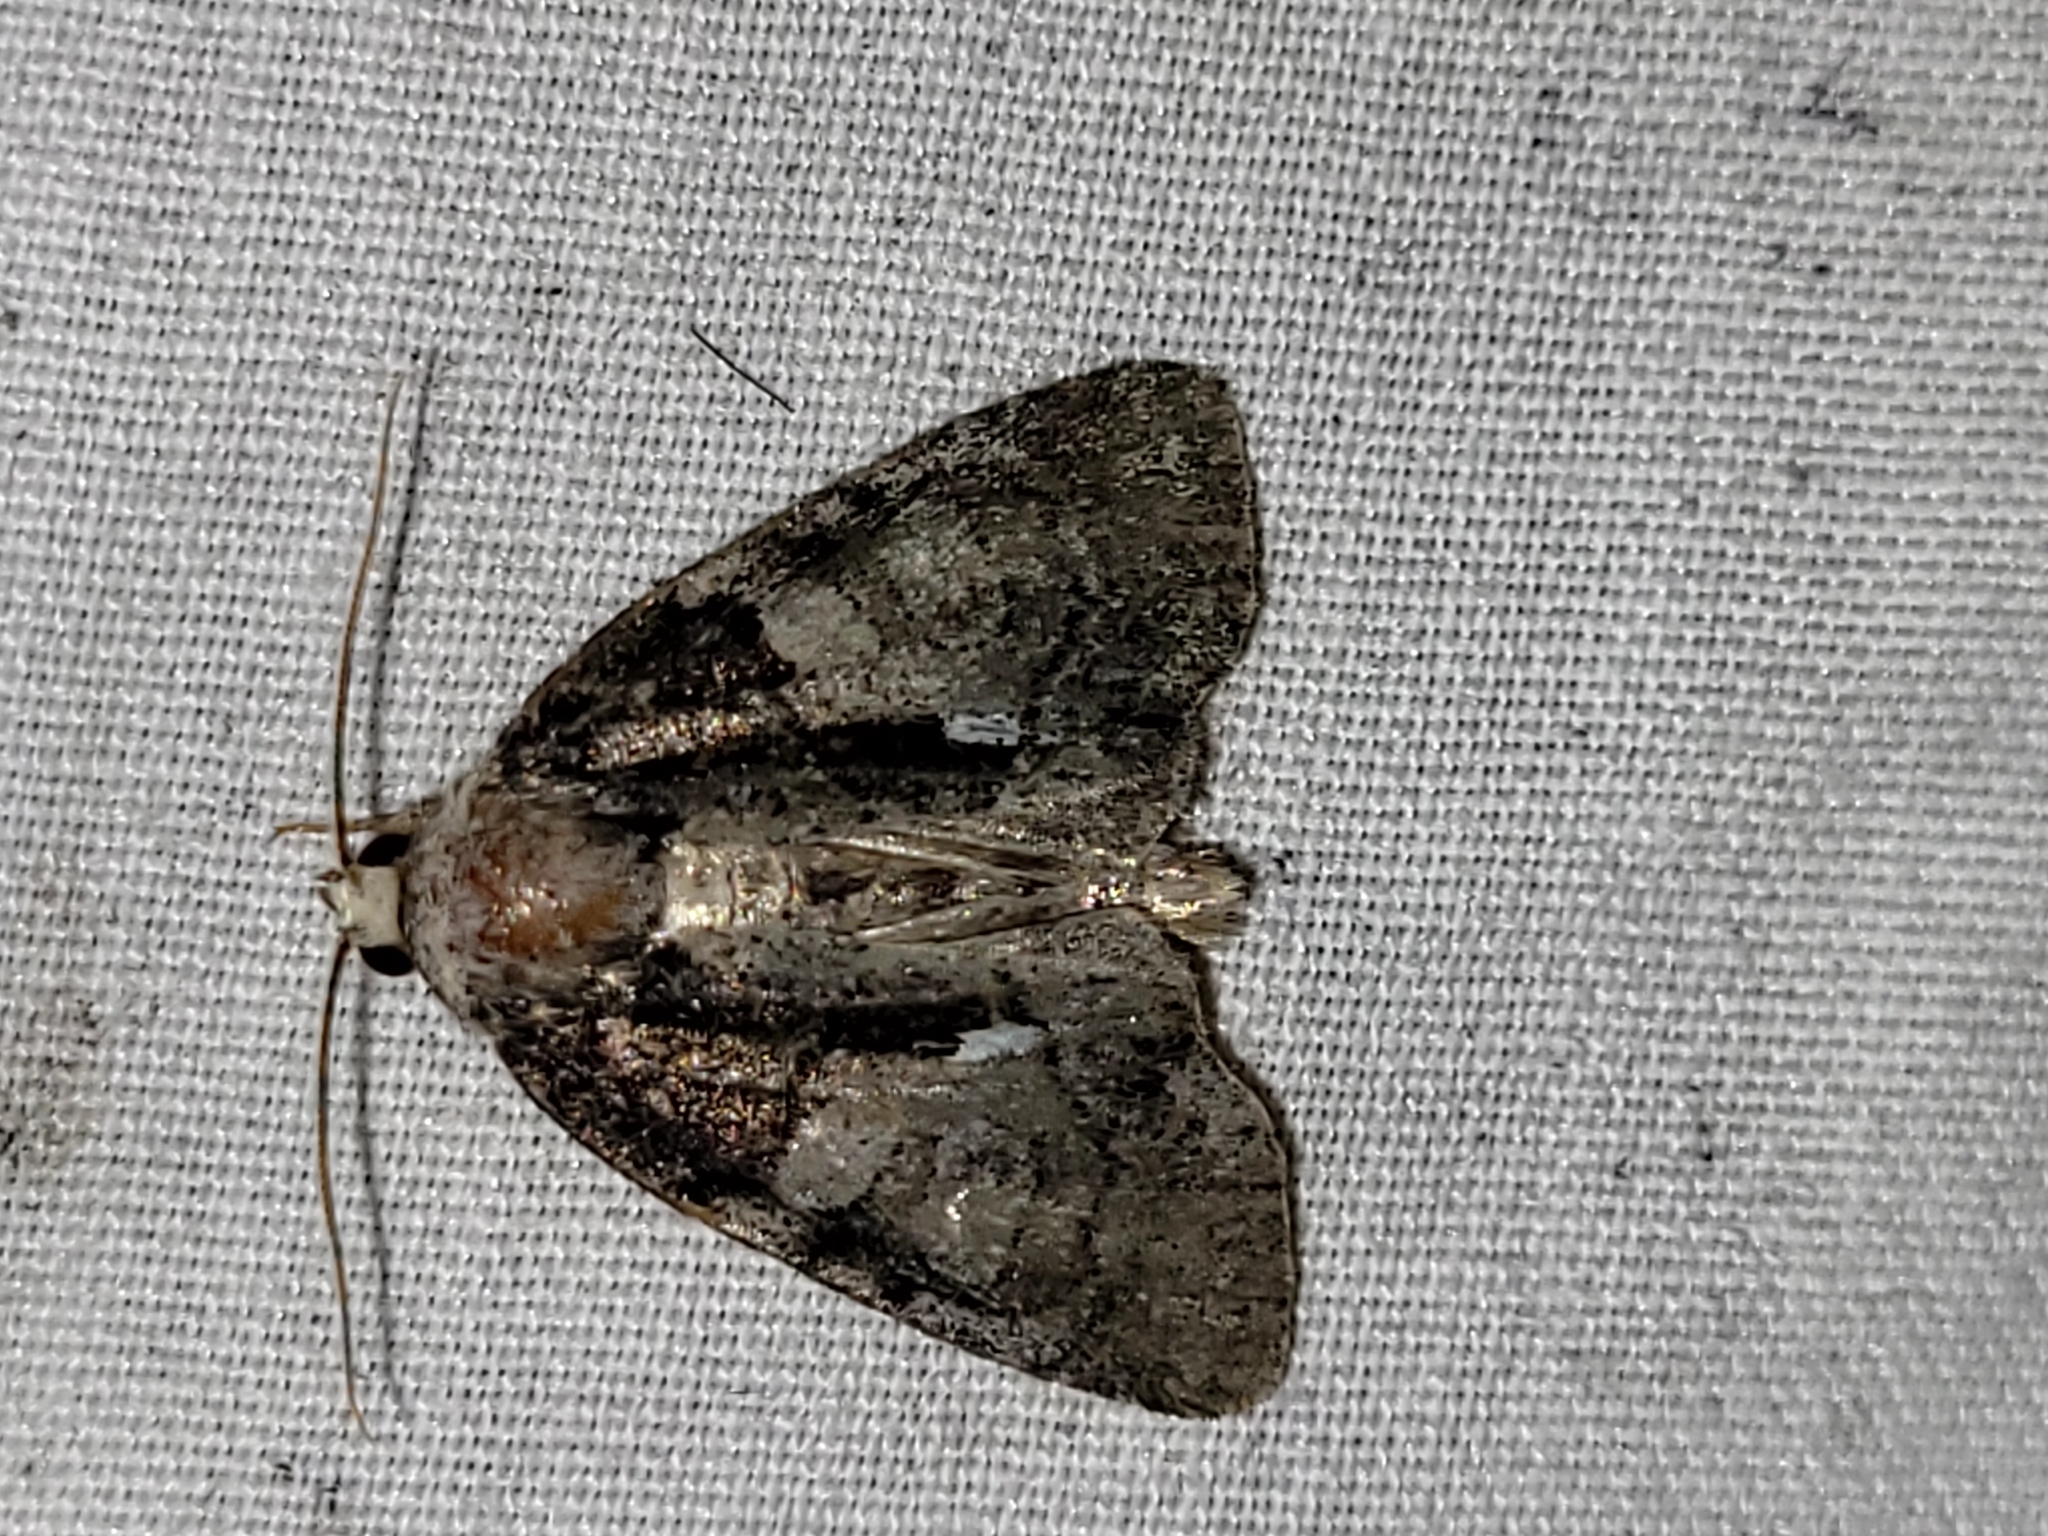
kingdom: Animalia
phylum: Arthropoda
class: Insecta
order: Lepidoptera
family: Noctuidae
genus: Chytonix
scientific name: Chytonix palliatricula
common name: Cloaked marvel
